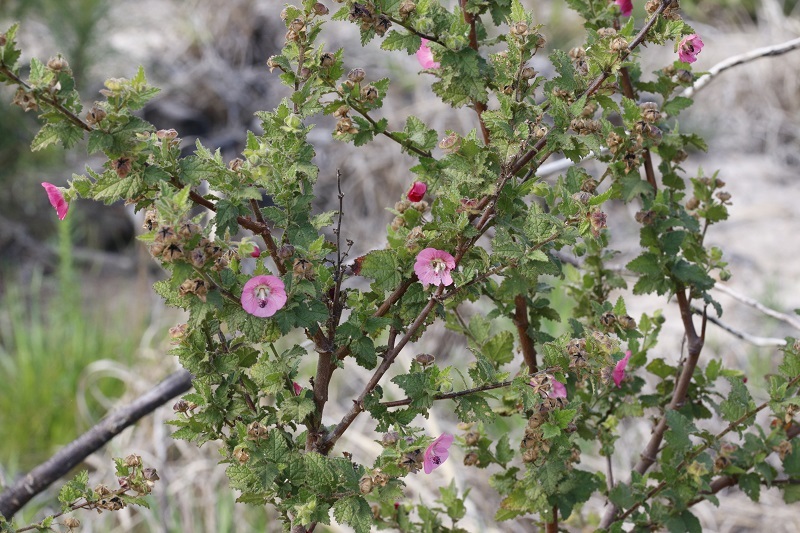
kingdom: Plantae
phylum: Tracheophyta
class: Magnoliopsida
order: Malvales
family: Malvaceae
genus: Anisodontea
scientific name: Anisodontea scabrosa
